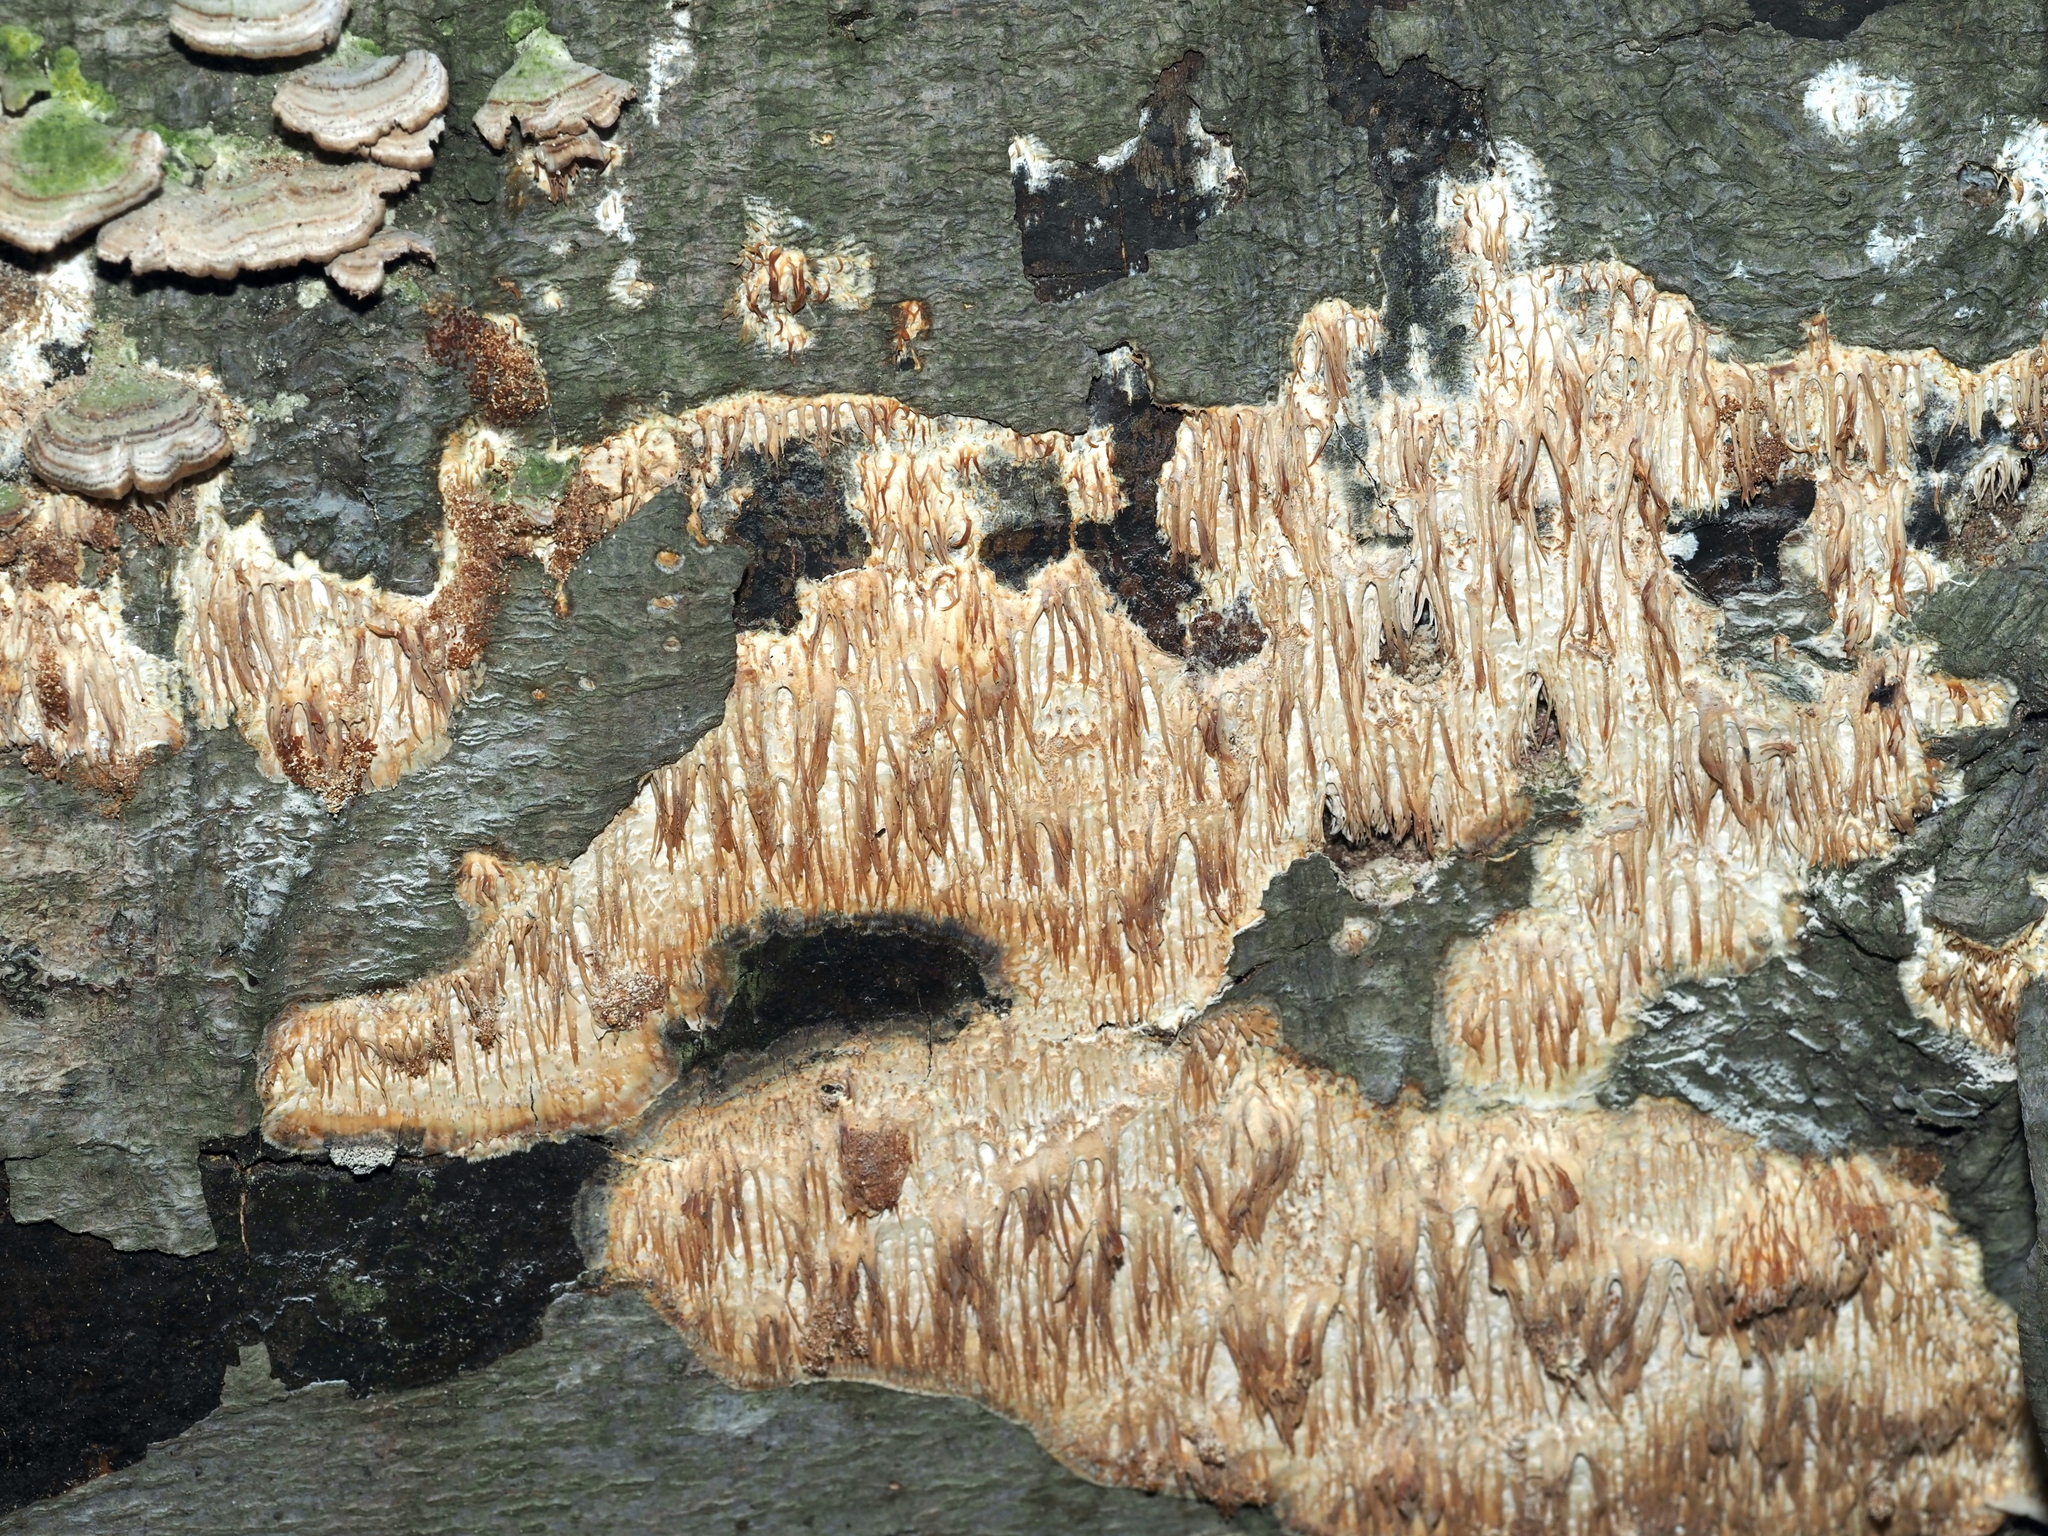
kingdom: Fungi
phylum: Basidiomycota
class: Agaricomycetes
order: Agaricales
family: Radulomycetaceae
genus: Radulomyces
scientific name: Radulomyces copelandii
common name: Asian beauty
